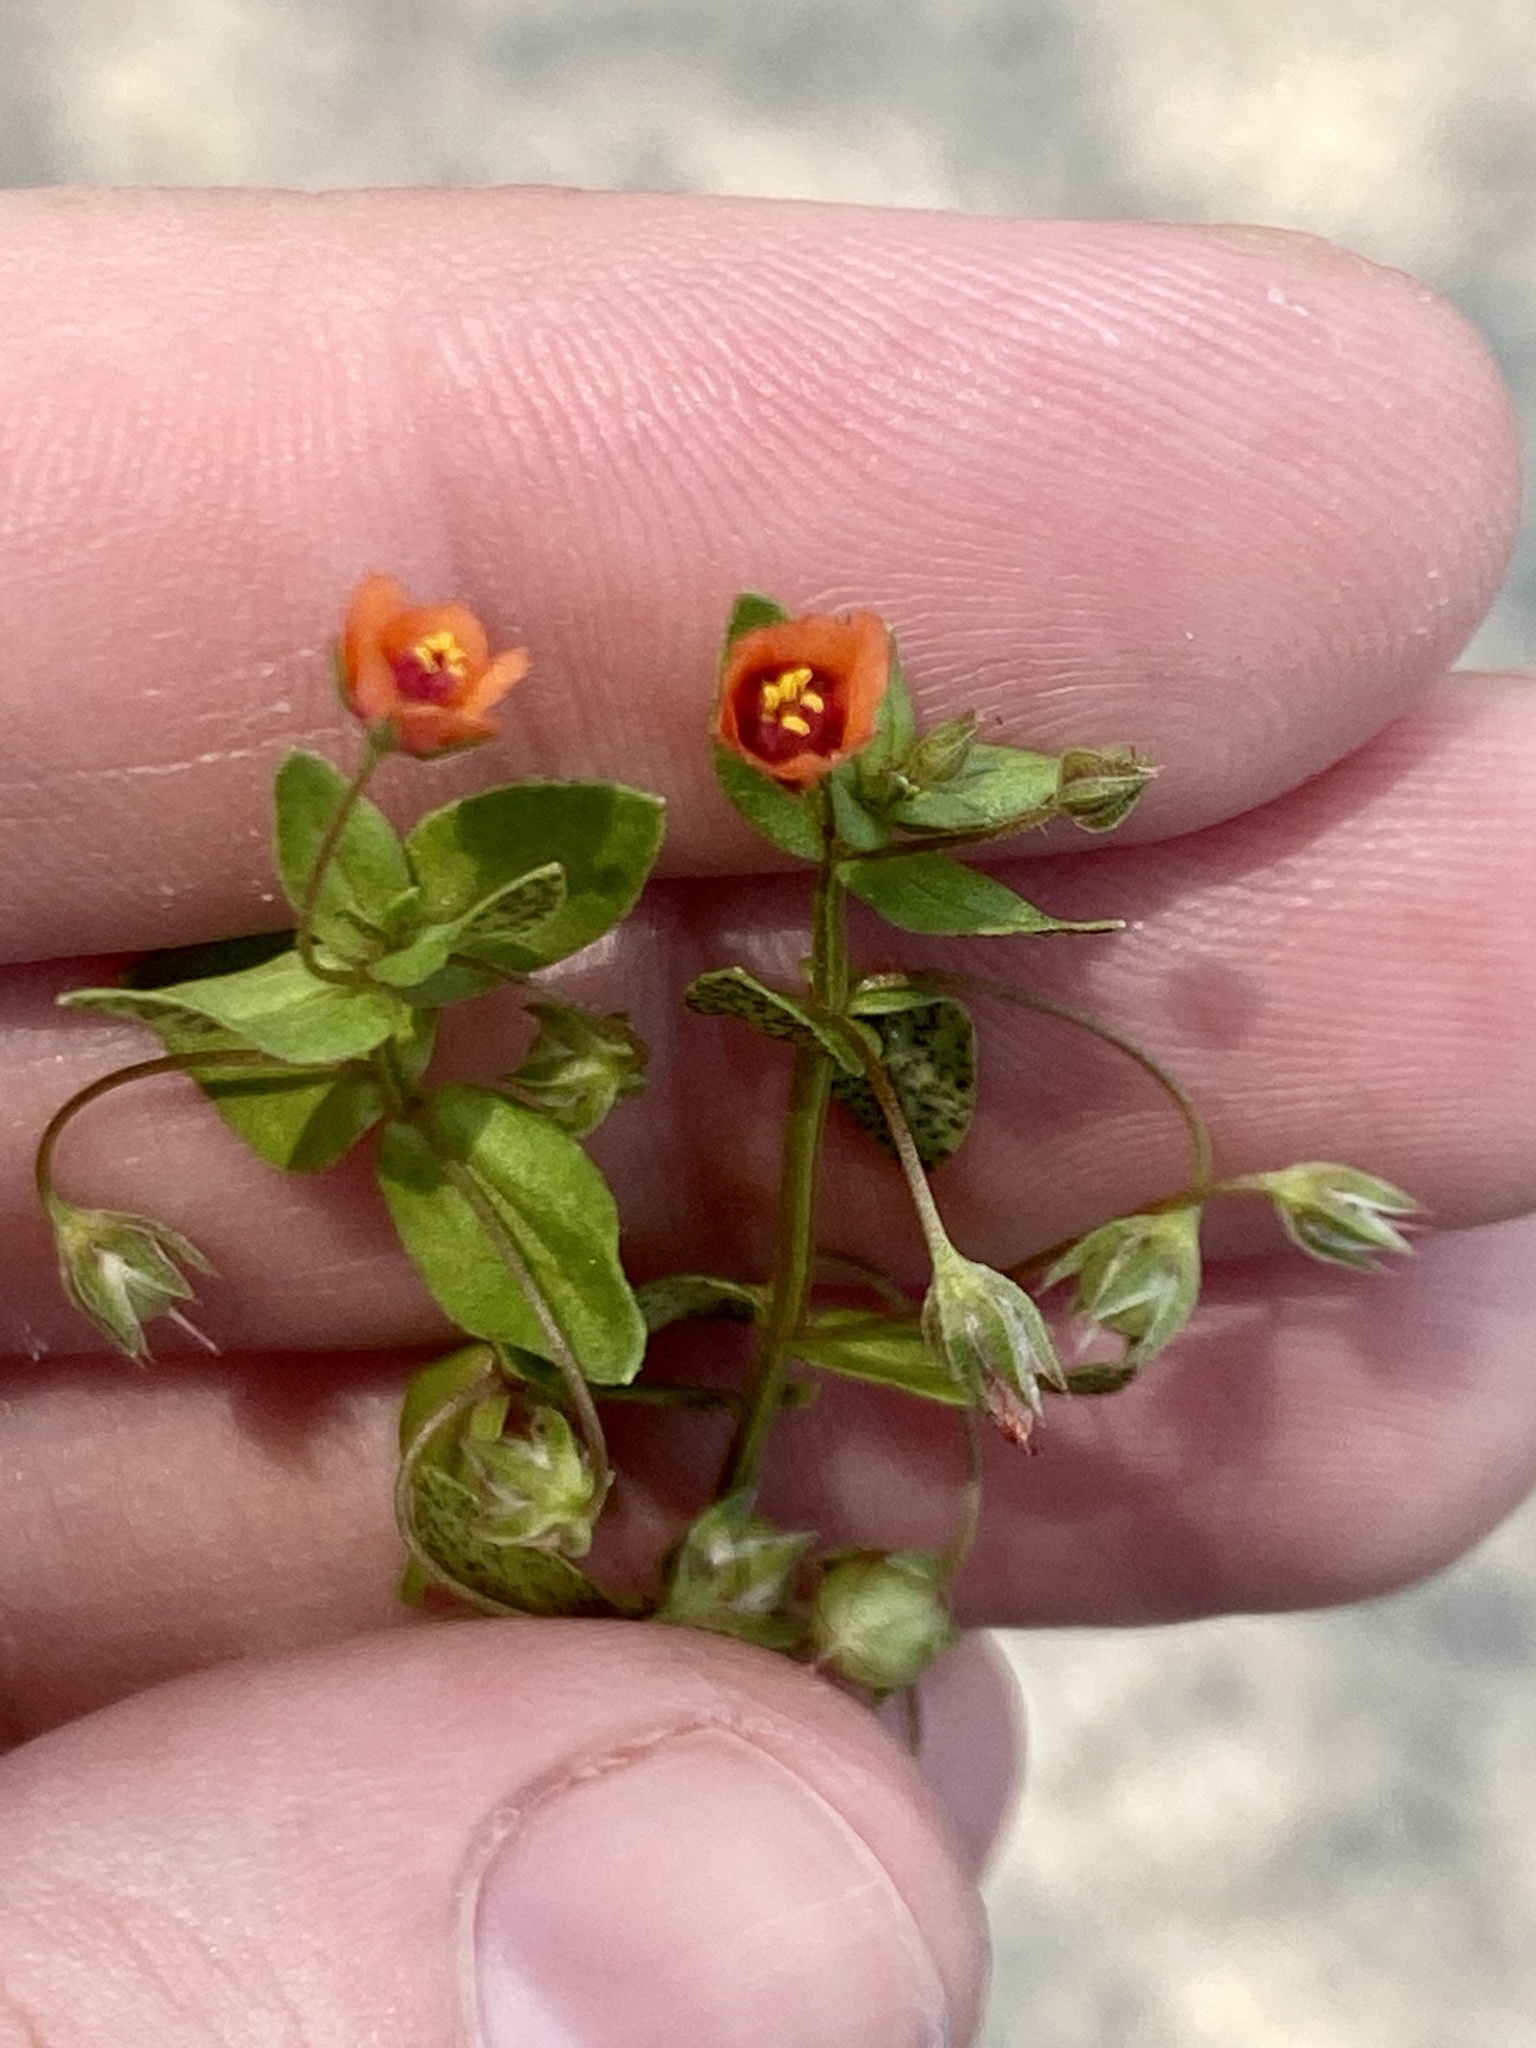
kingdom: Plantae
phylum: Tracheophyta
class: Magnoliopsida
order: Ericales
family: Primulaceae
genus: Lysimachia
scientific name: Lysimachia arvensis
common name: Scarlet pimpernel
